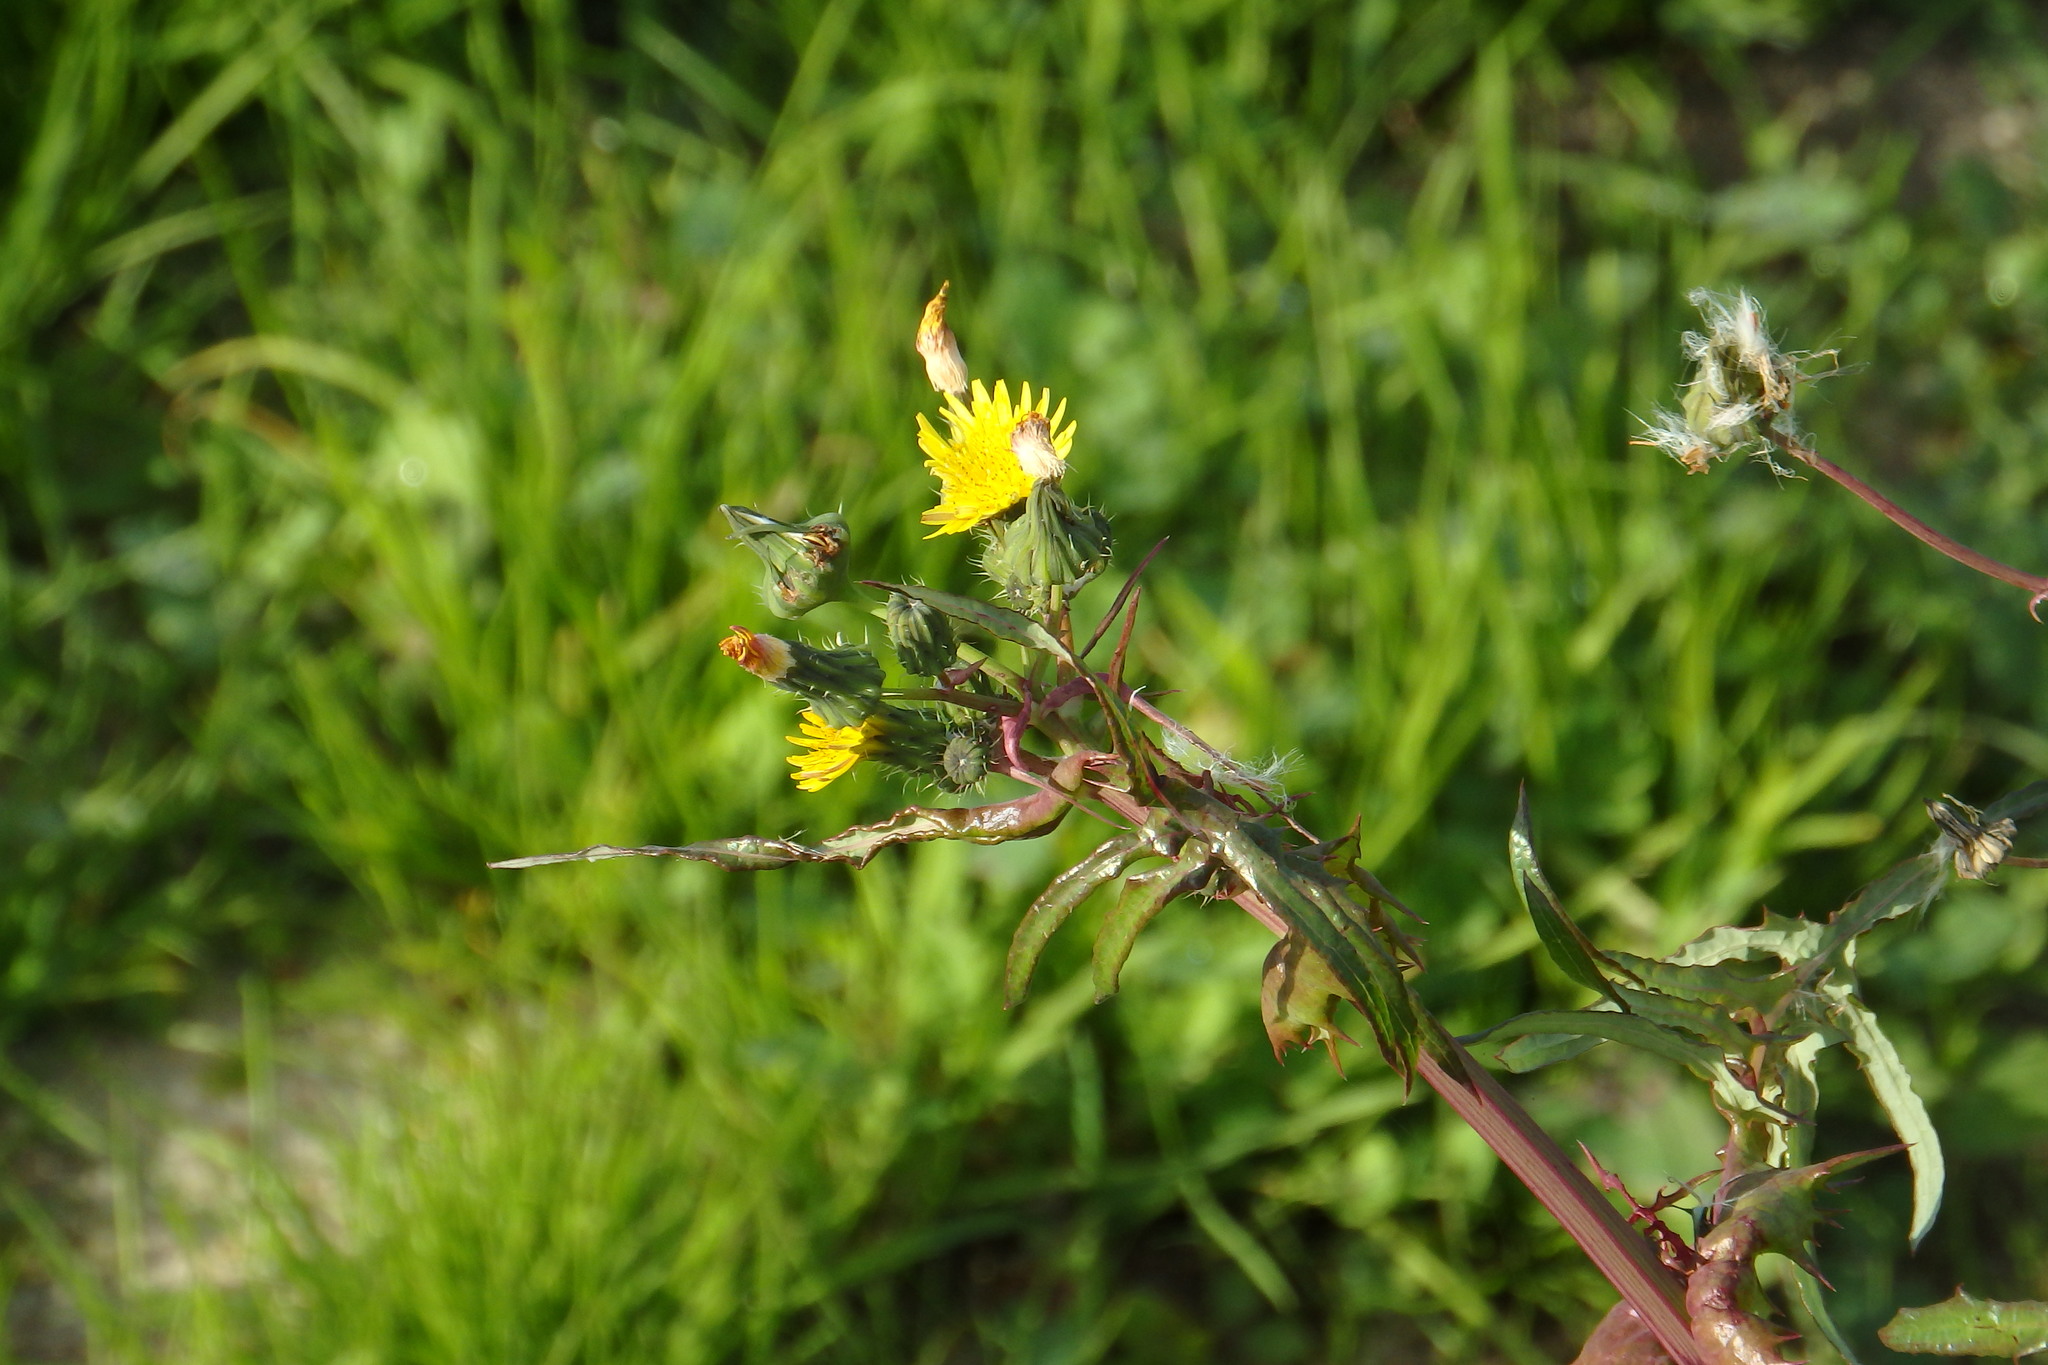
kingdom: Plantae
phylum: Tracheophyta
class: Magnoliopsida
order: Asterales
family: Asteraceae
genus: Sonchus
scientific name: Sonchus asper
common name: Prickly sow-thistle
